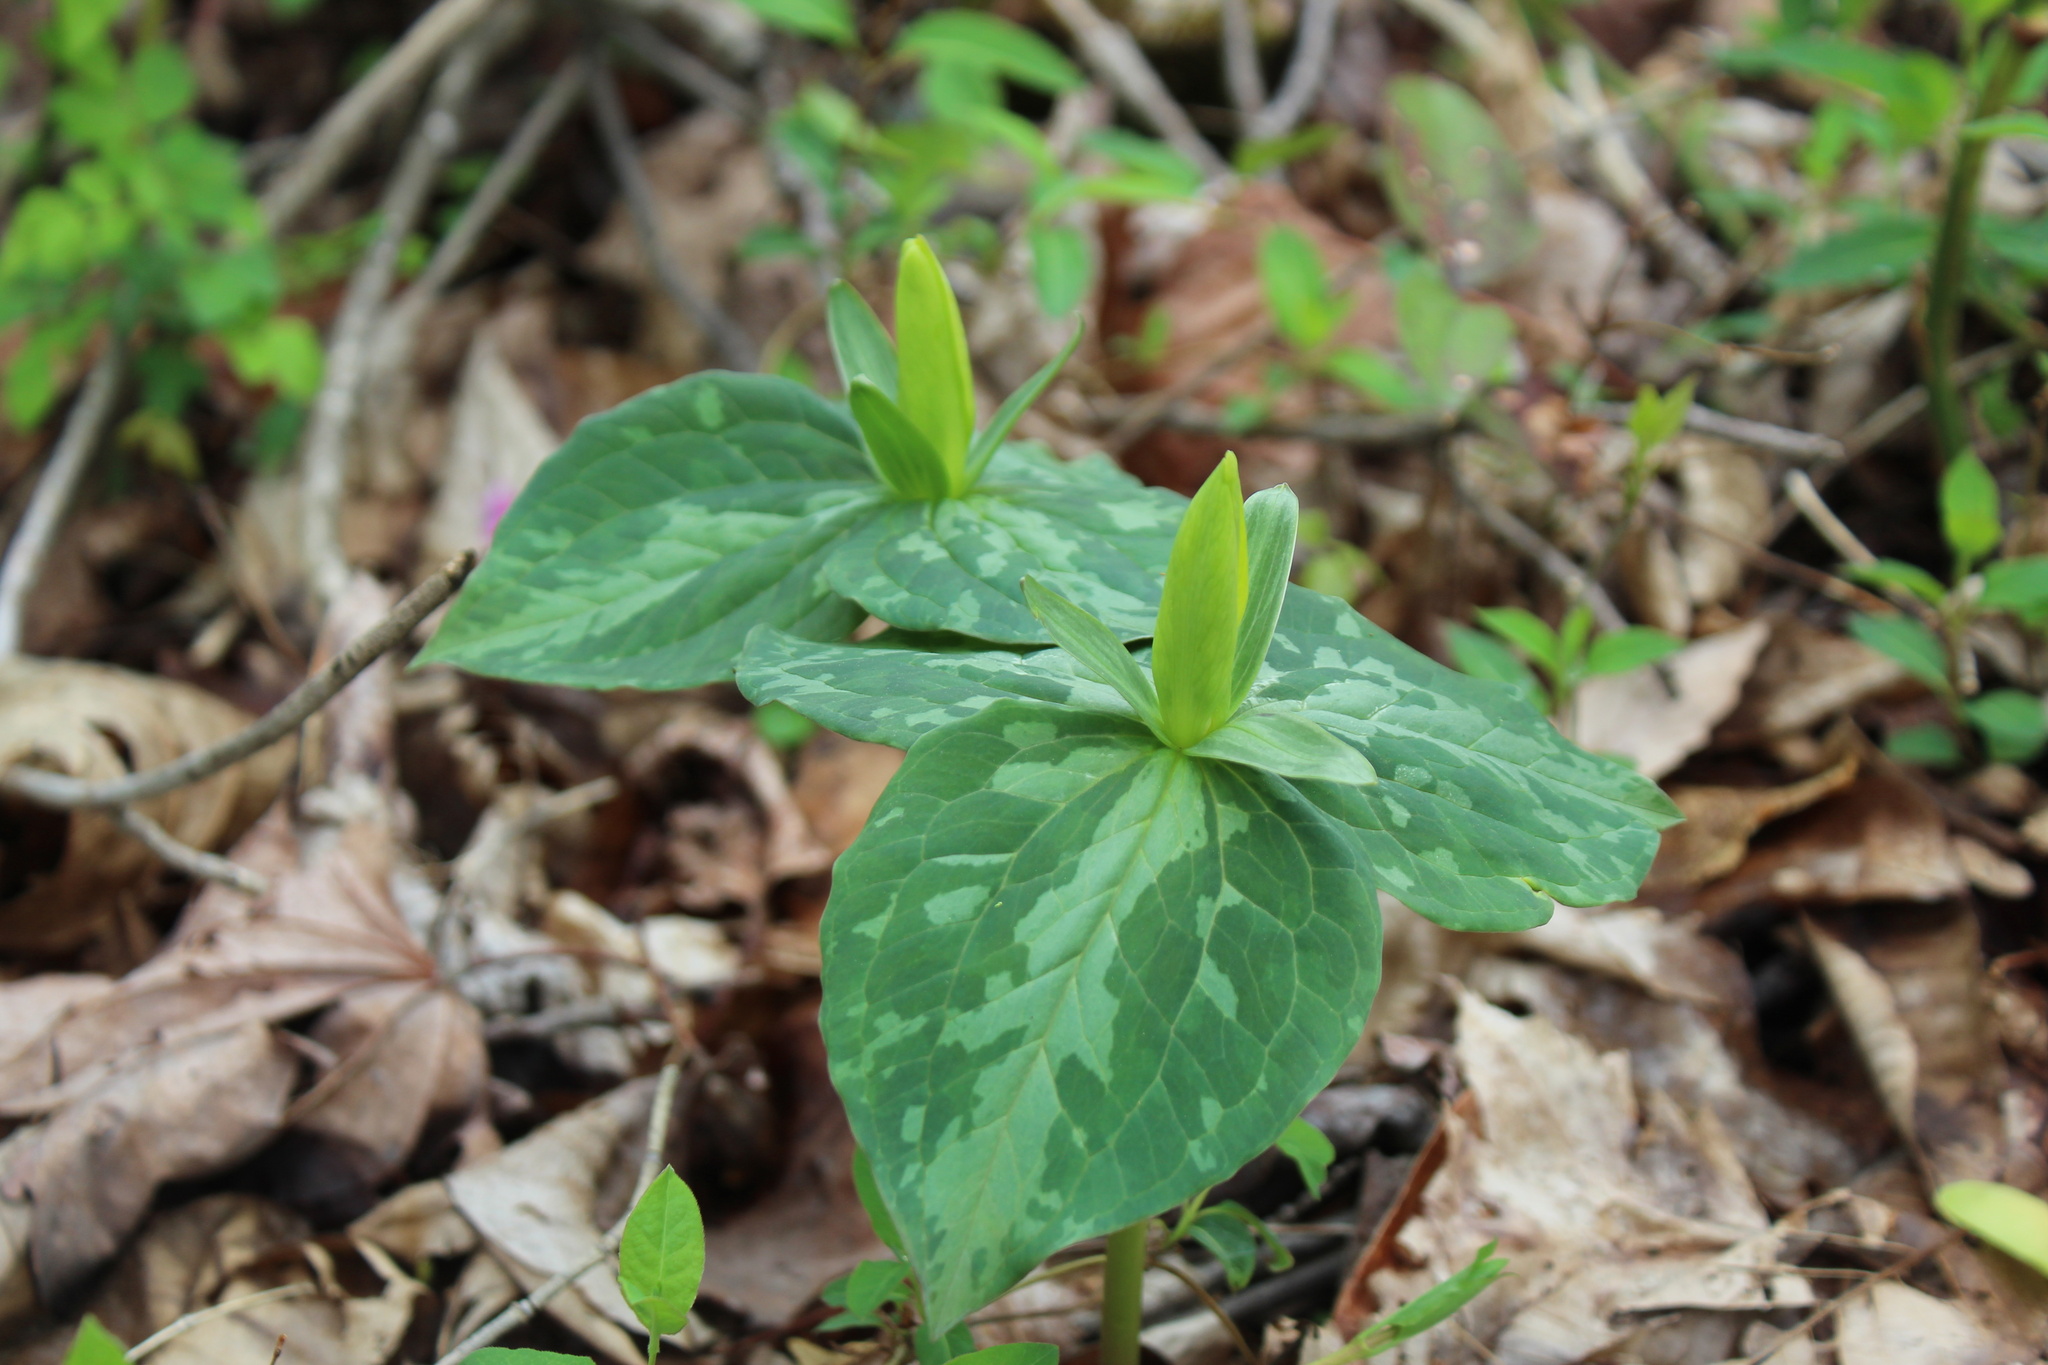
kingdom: Plantae
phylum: Tracheophyta
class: Liliopsida
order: Liliales
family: Melanthiaceae
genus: Trillium
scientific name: Trillium luteum
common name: Wax trillium
